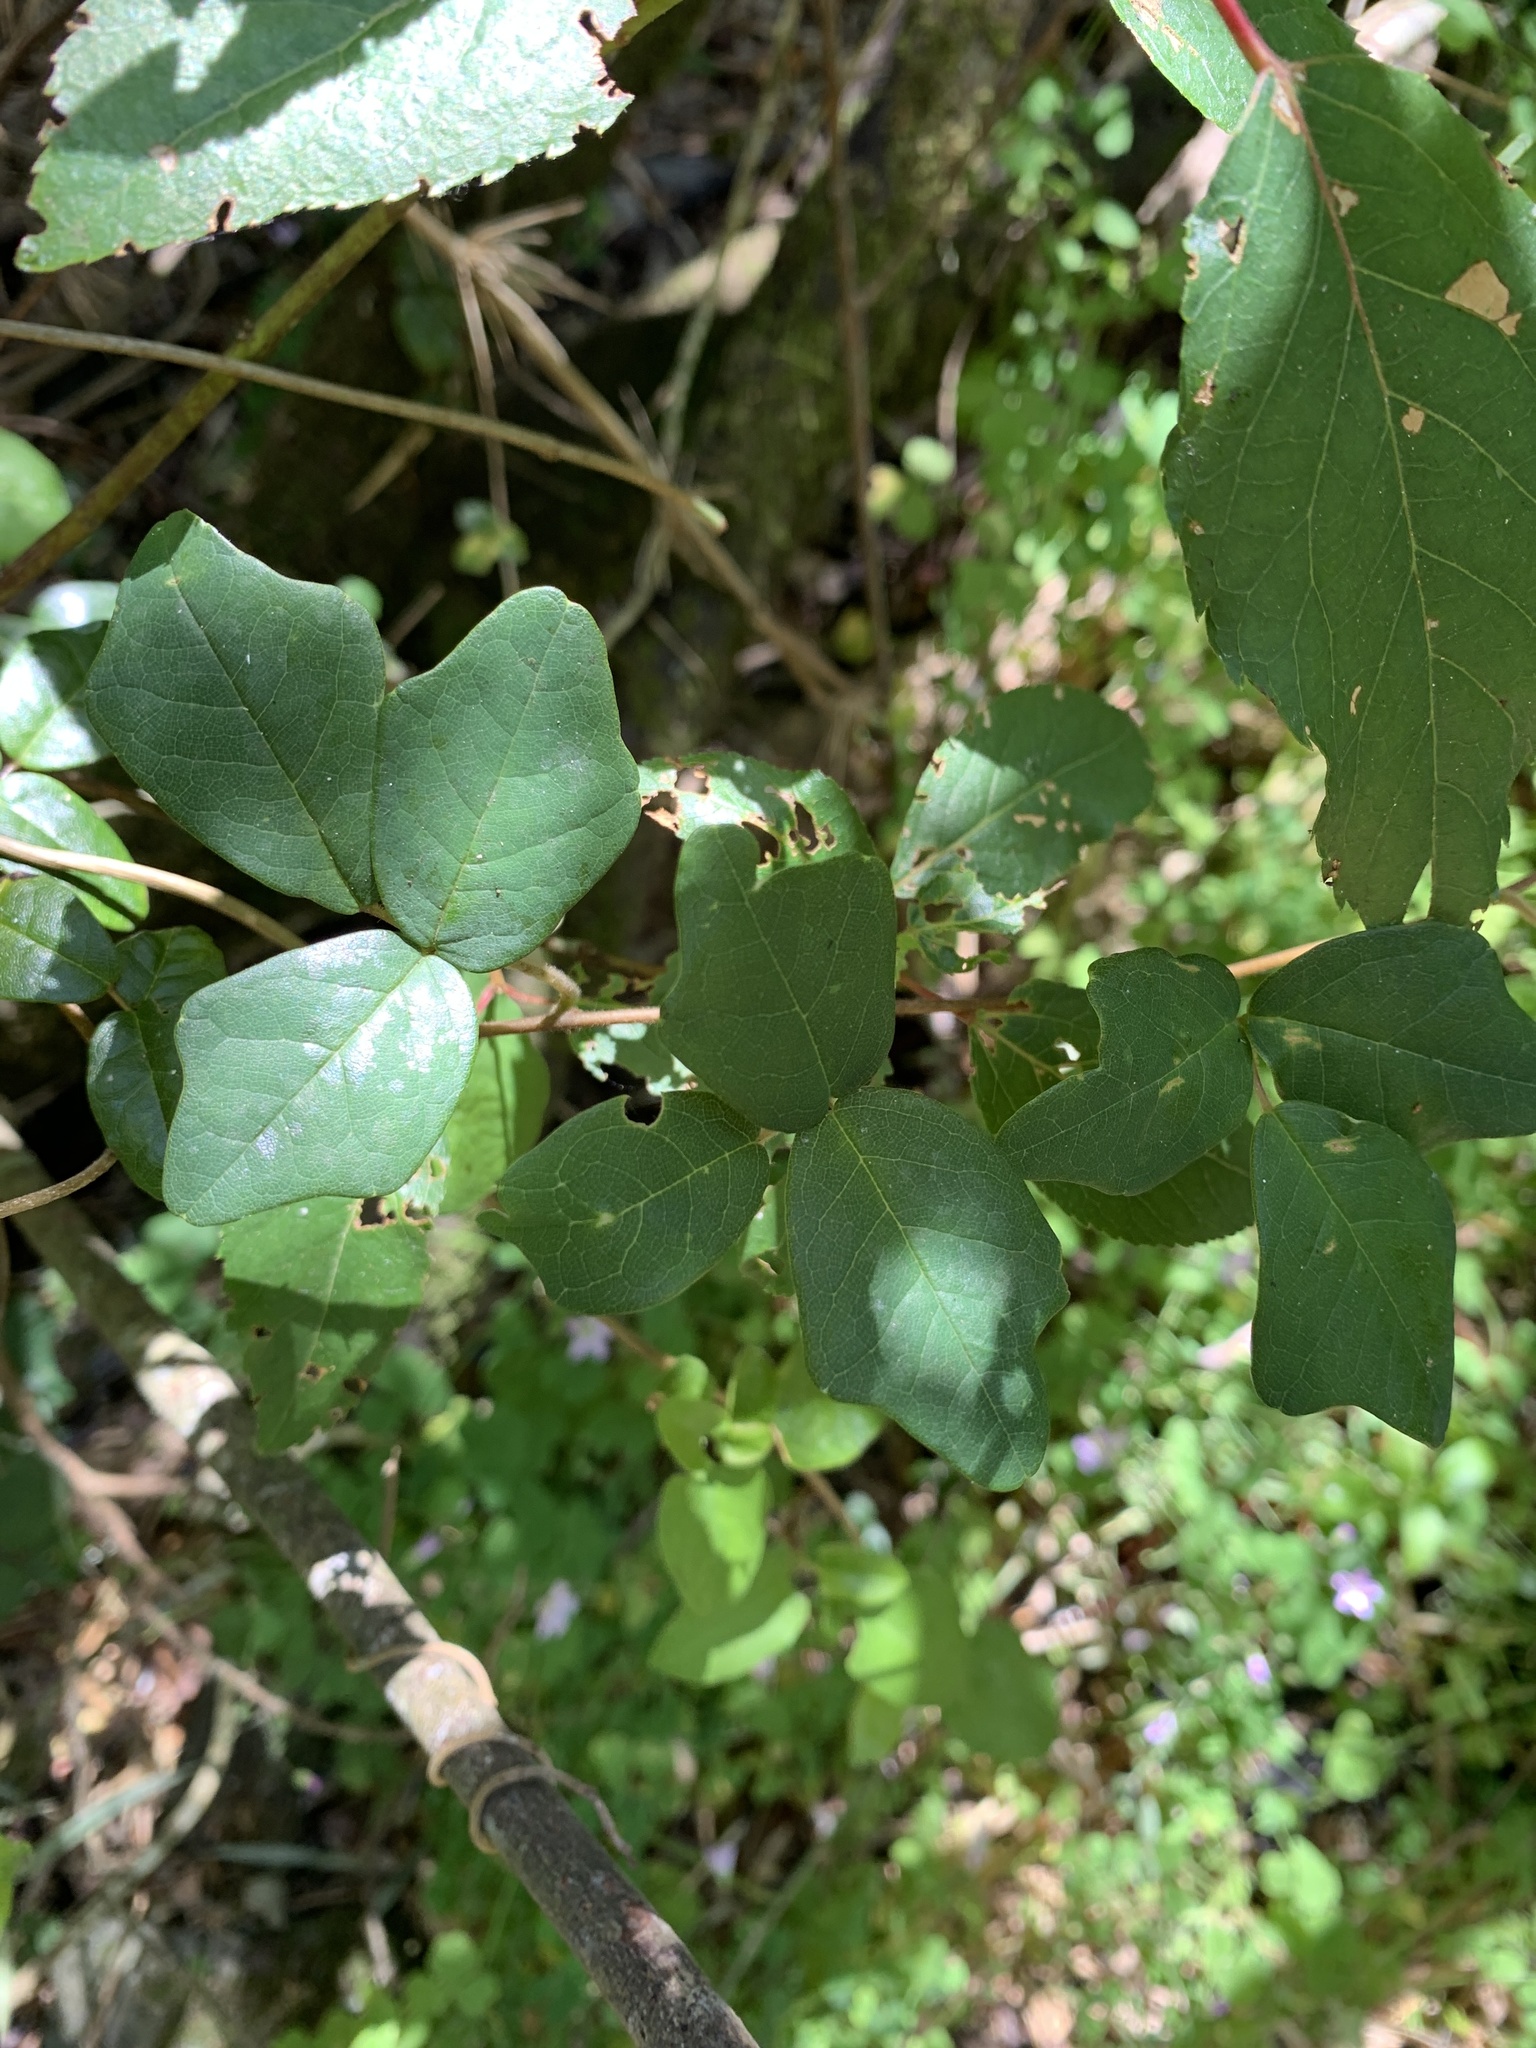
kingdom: Plantae
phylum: Tracheophyta
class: Magnoliopsida
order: Ranunculales
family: Lardizabalaceae
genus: Boquila
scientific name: Boquila trifoliolata
